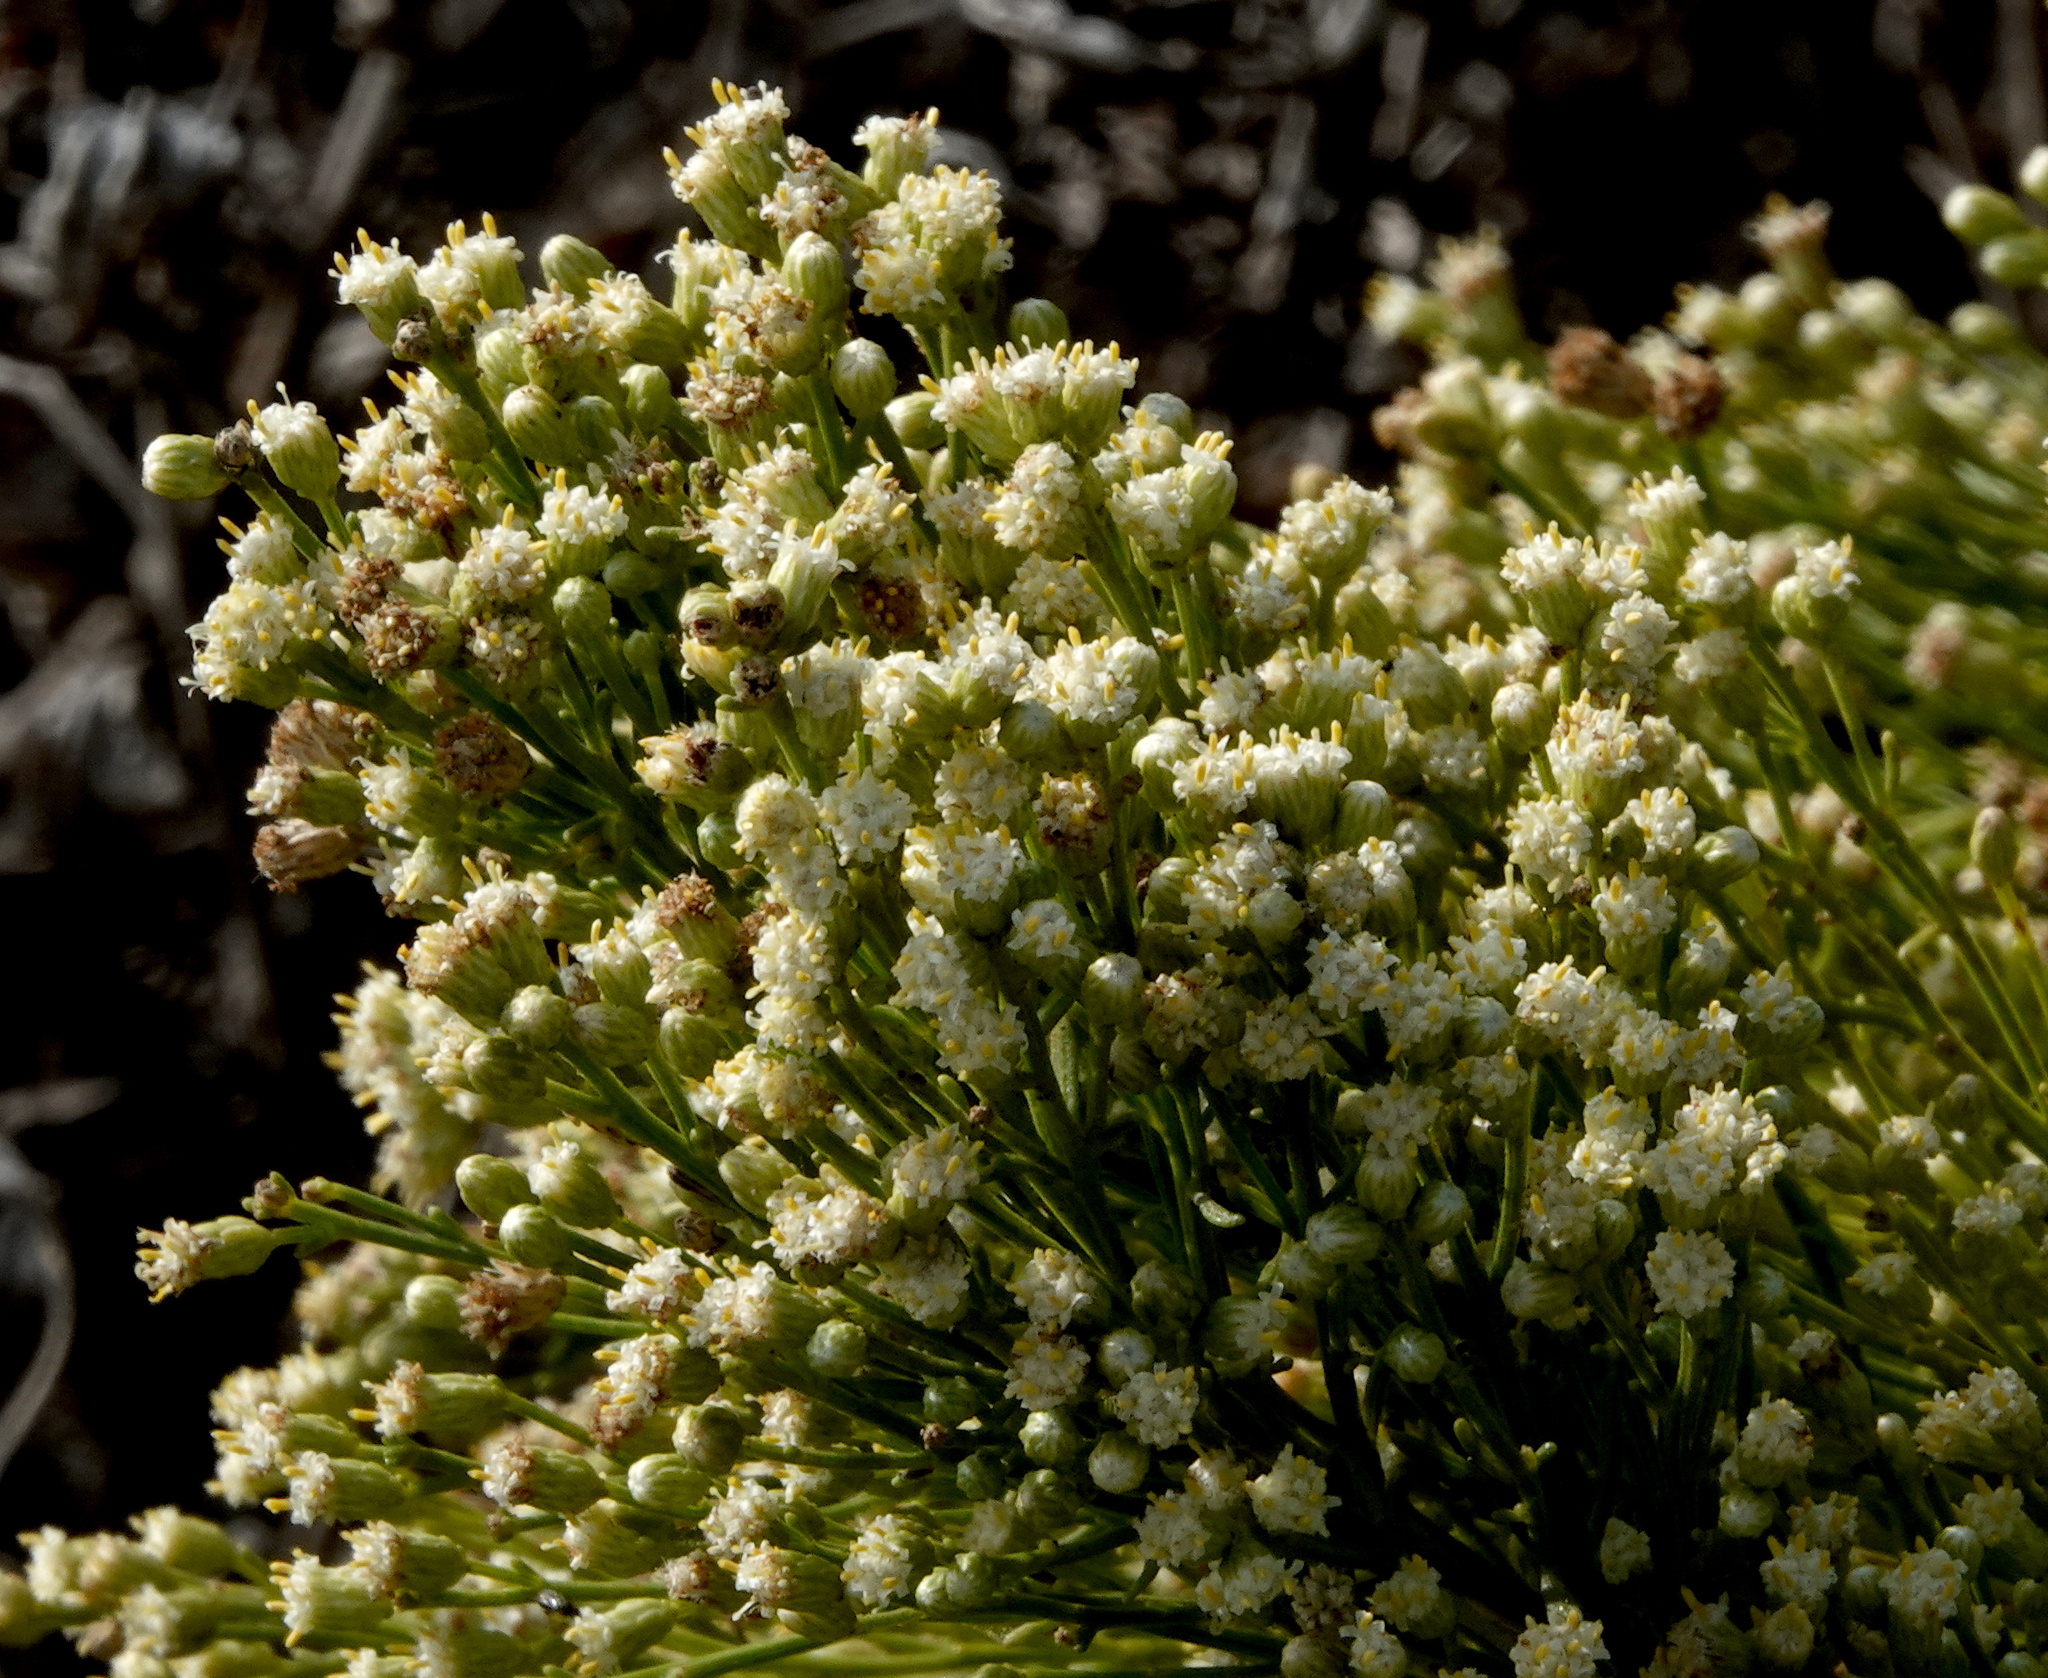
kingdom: Plantae
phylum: Tracheophyta
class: Magnoliopsida
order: Asterales
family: Asteraceae
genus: Baccharis
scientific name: Baccharis sarothroides
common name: Desert-broom
